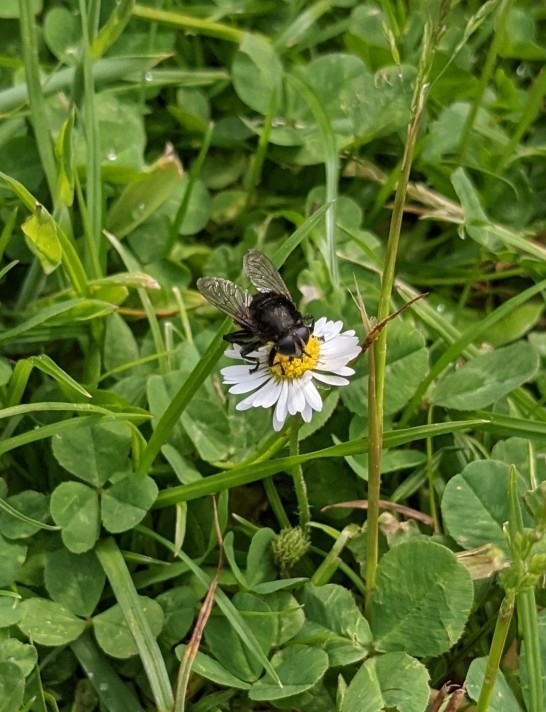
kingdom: Animalia
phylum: Arthropoda
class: Insecta
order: Diptera
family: Syrphidae
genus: Merodon
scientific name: Merodon equestris
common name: Greater bulb-fly
